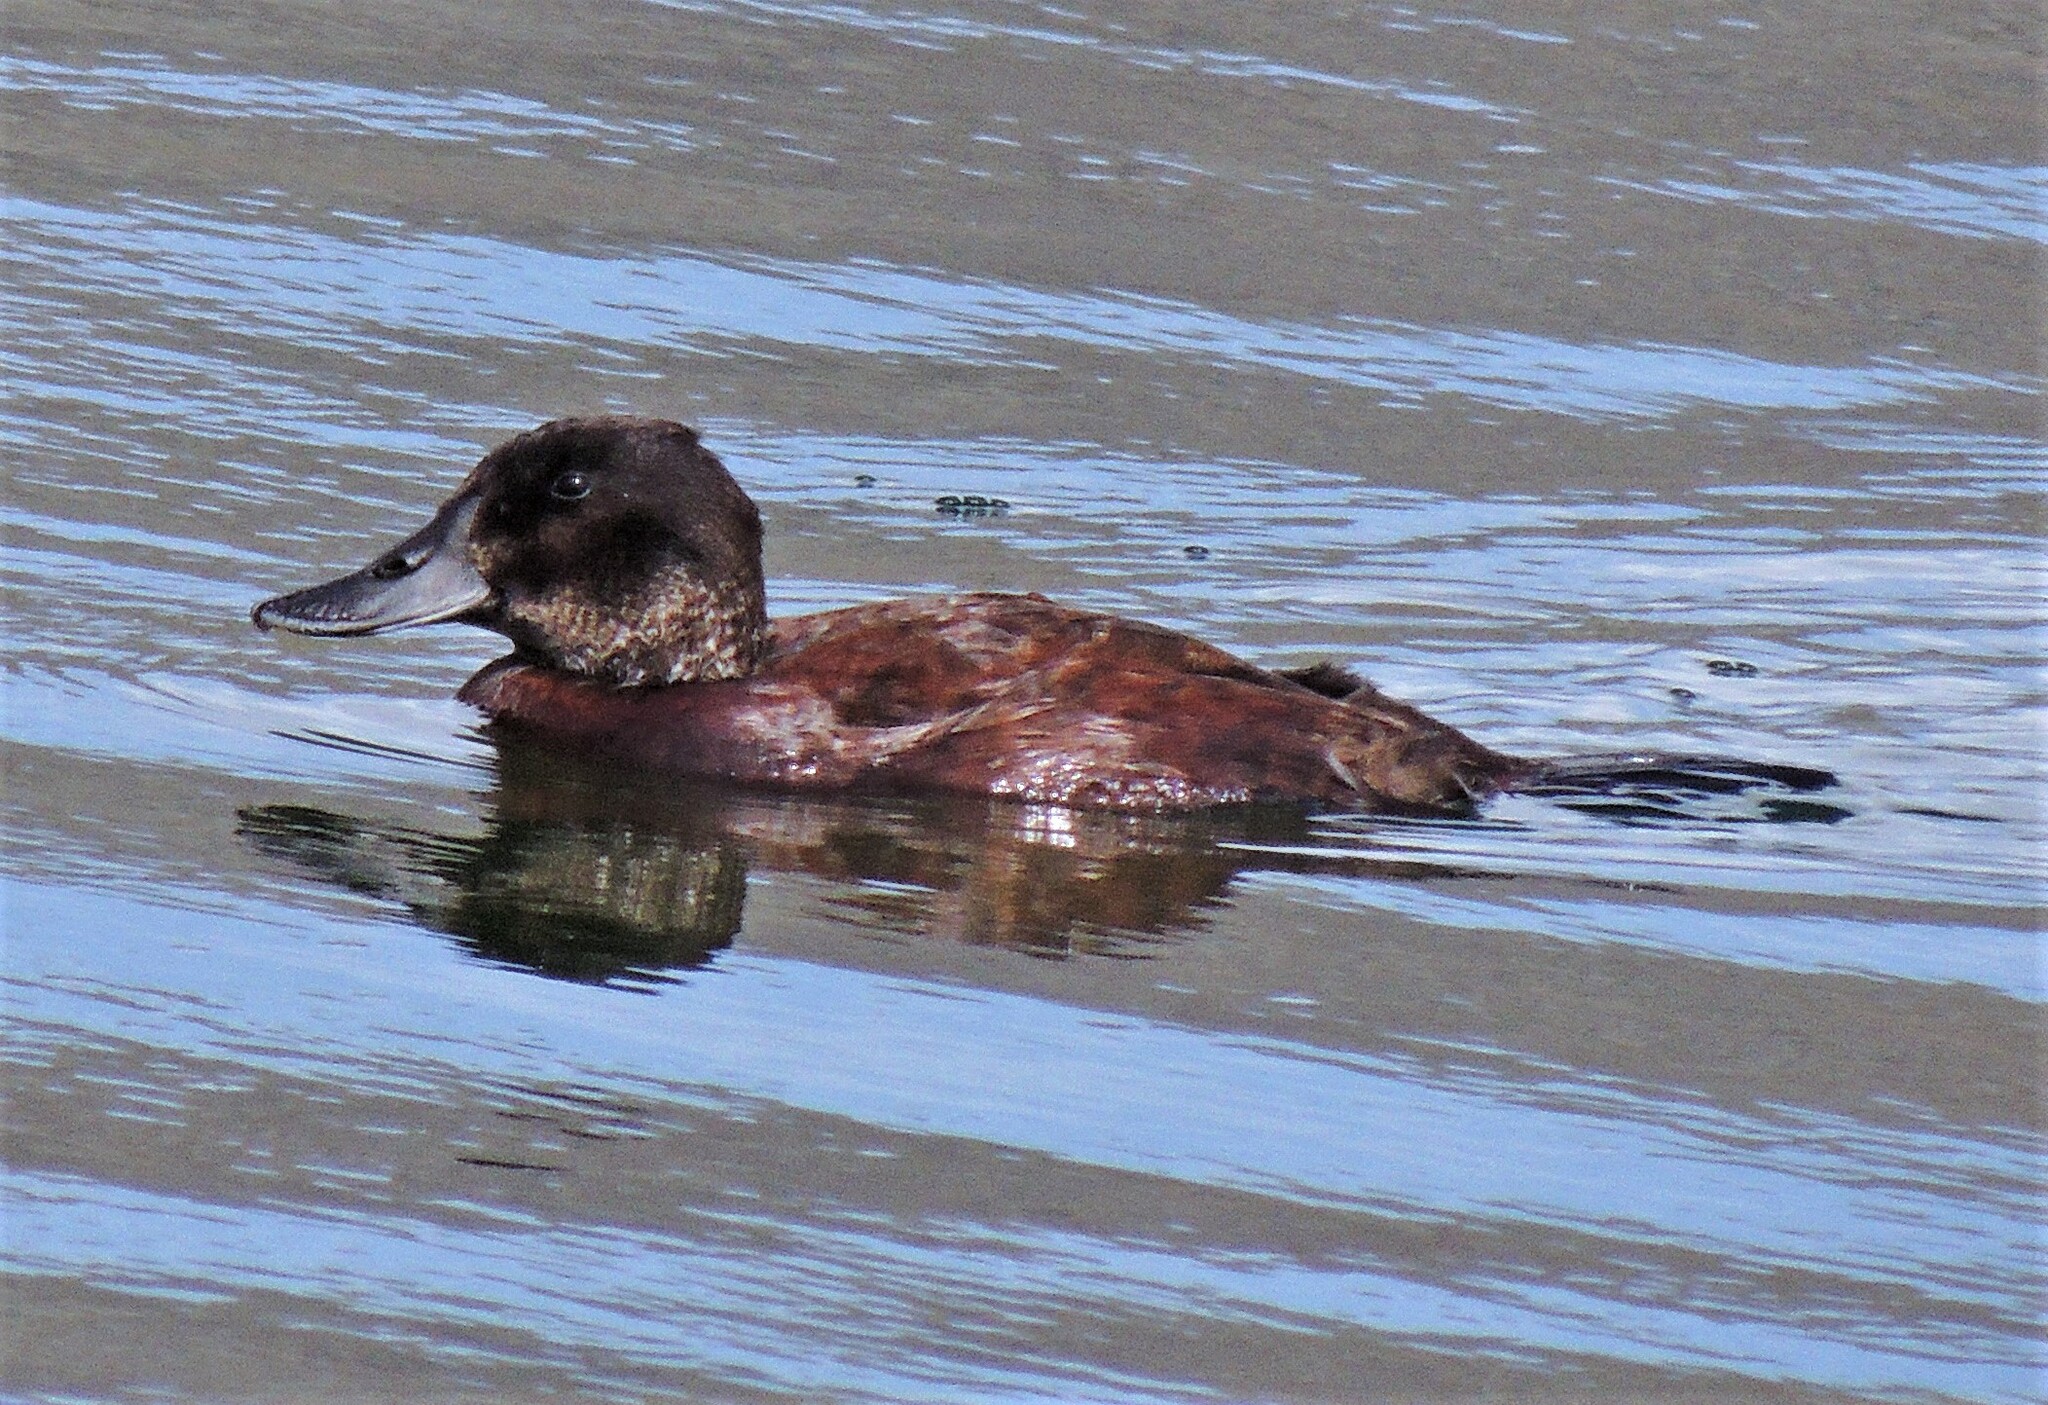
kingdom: Animalia
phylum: Chordata
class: Aves
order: Anseriformes
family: Anatidae
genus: Oxyura
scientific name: Oxyura ferruginea
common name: Andean duck
